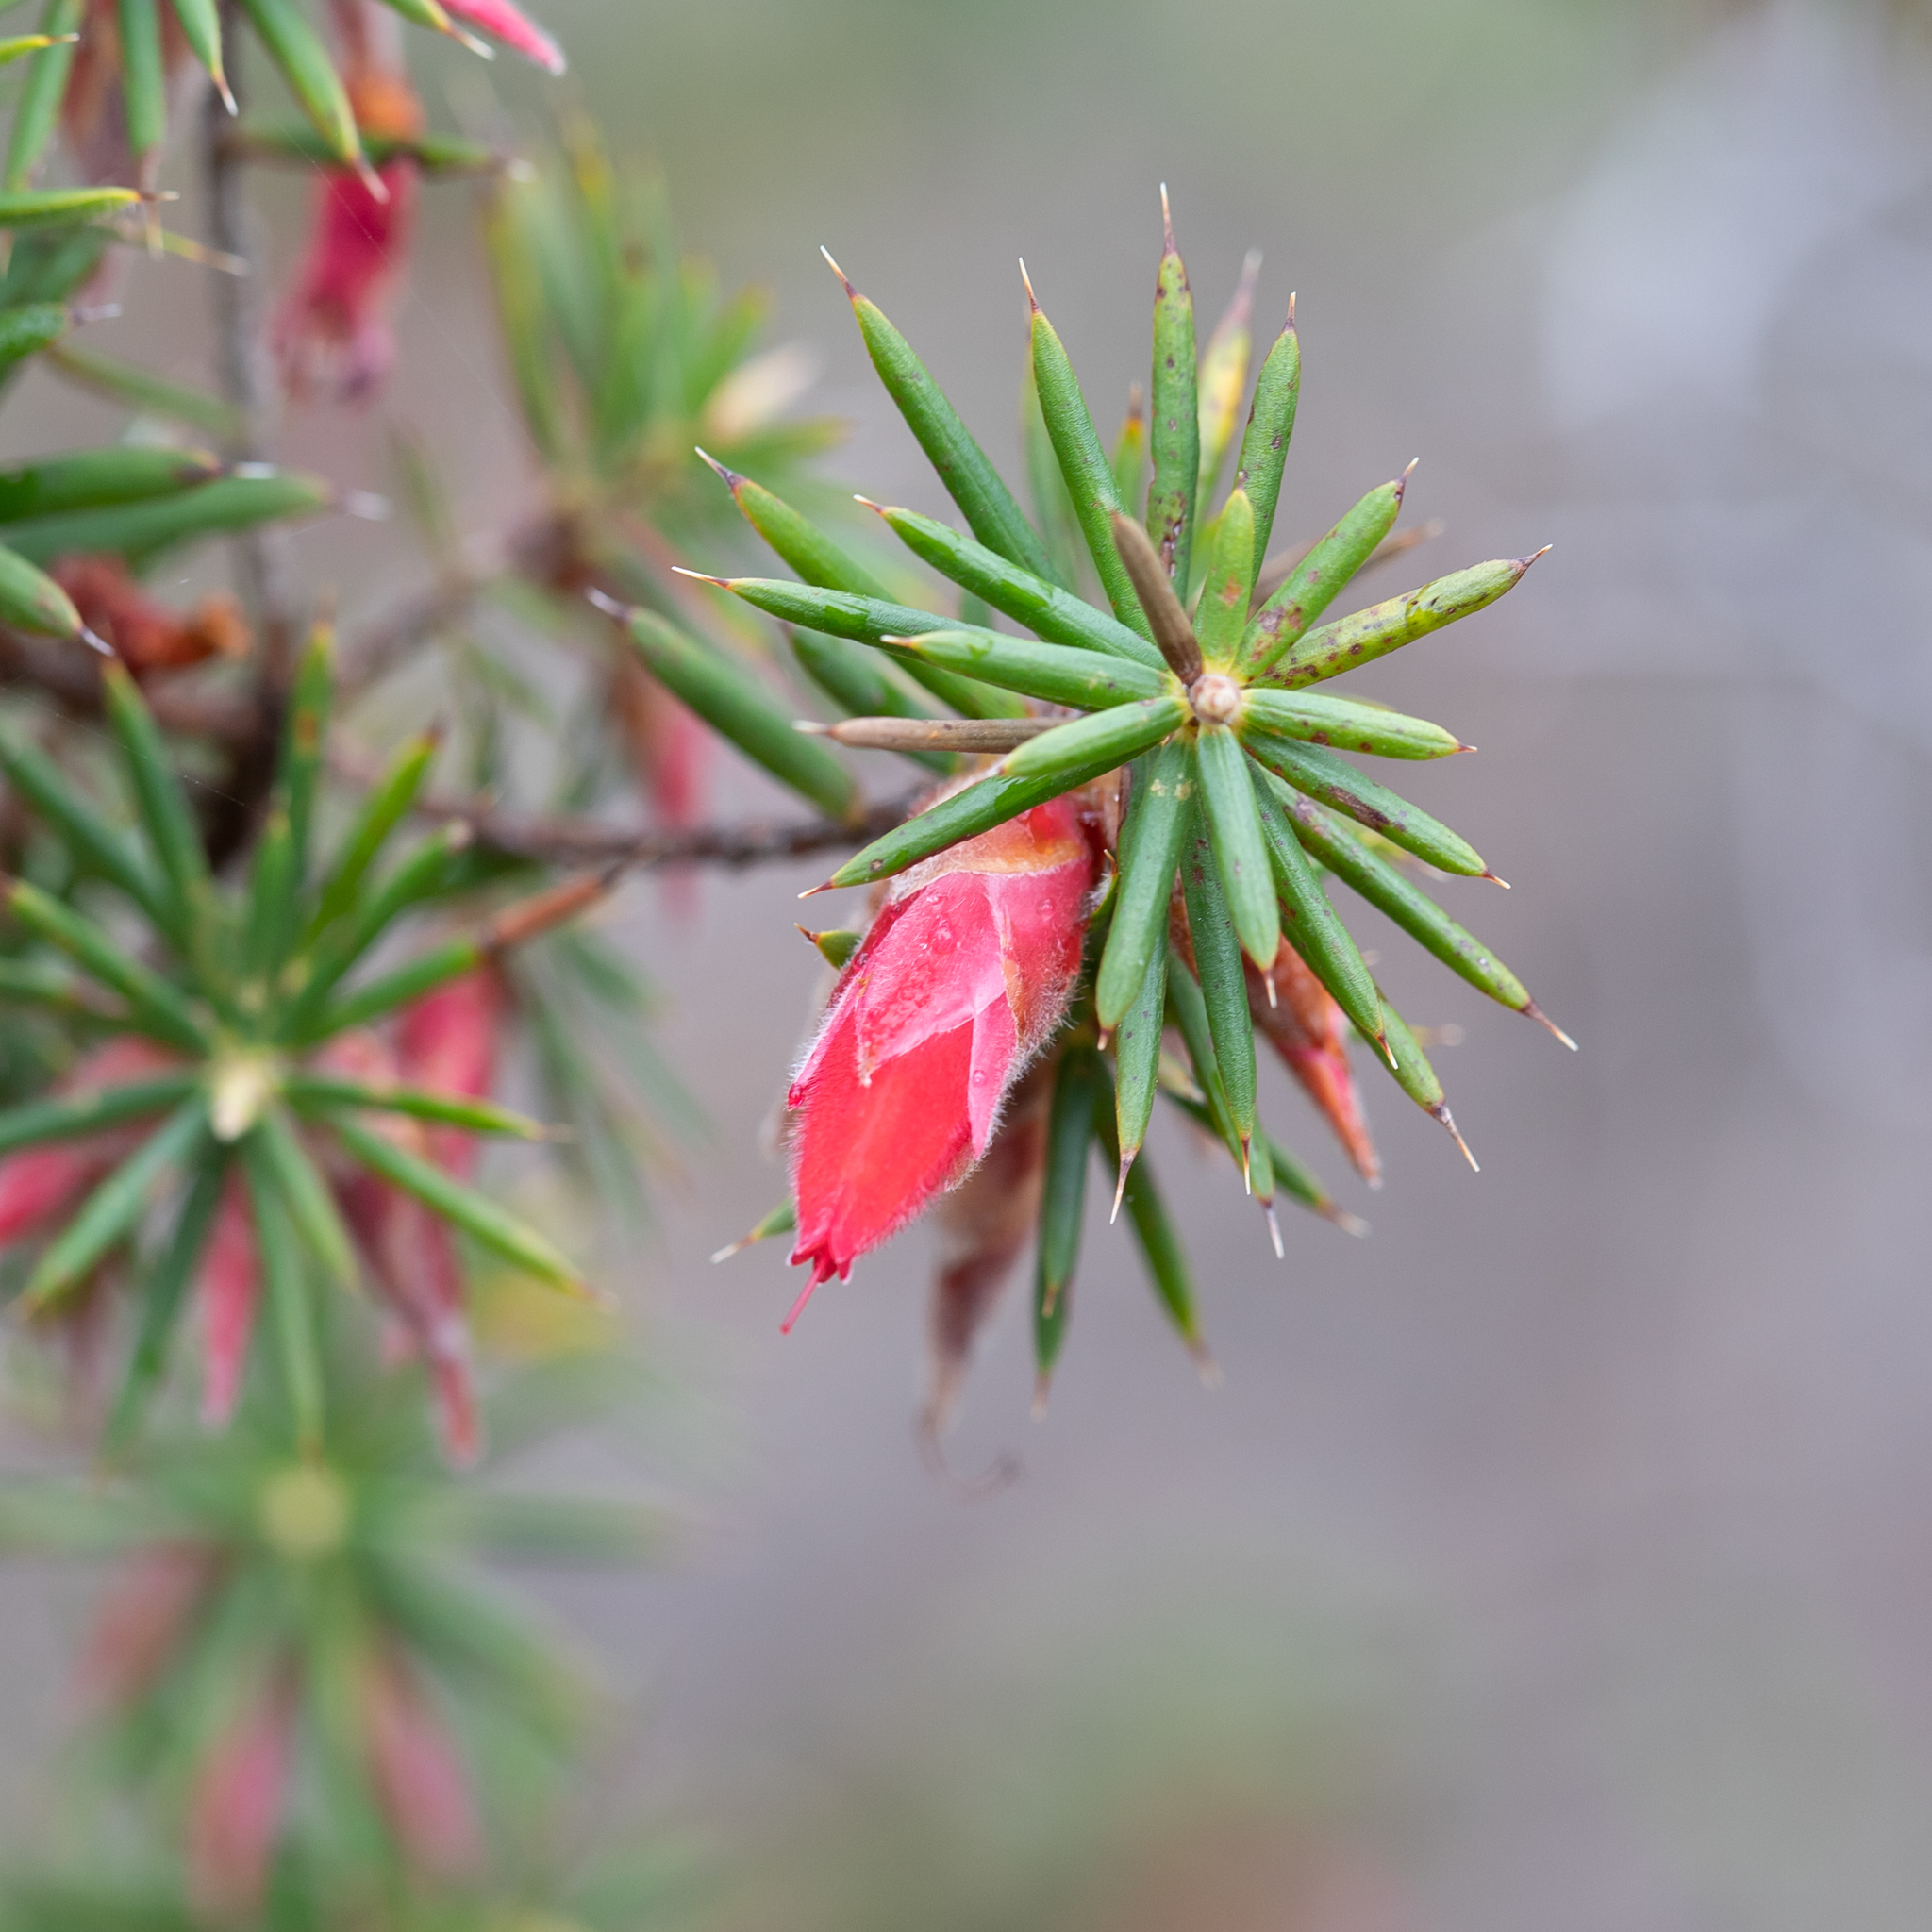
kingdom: Plantae
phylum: Tracheophyta
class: Magnoliopsida
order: Ericales
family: Ericaceae
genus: Stenanthera
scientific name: Stenanthera conostephioides
